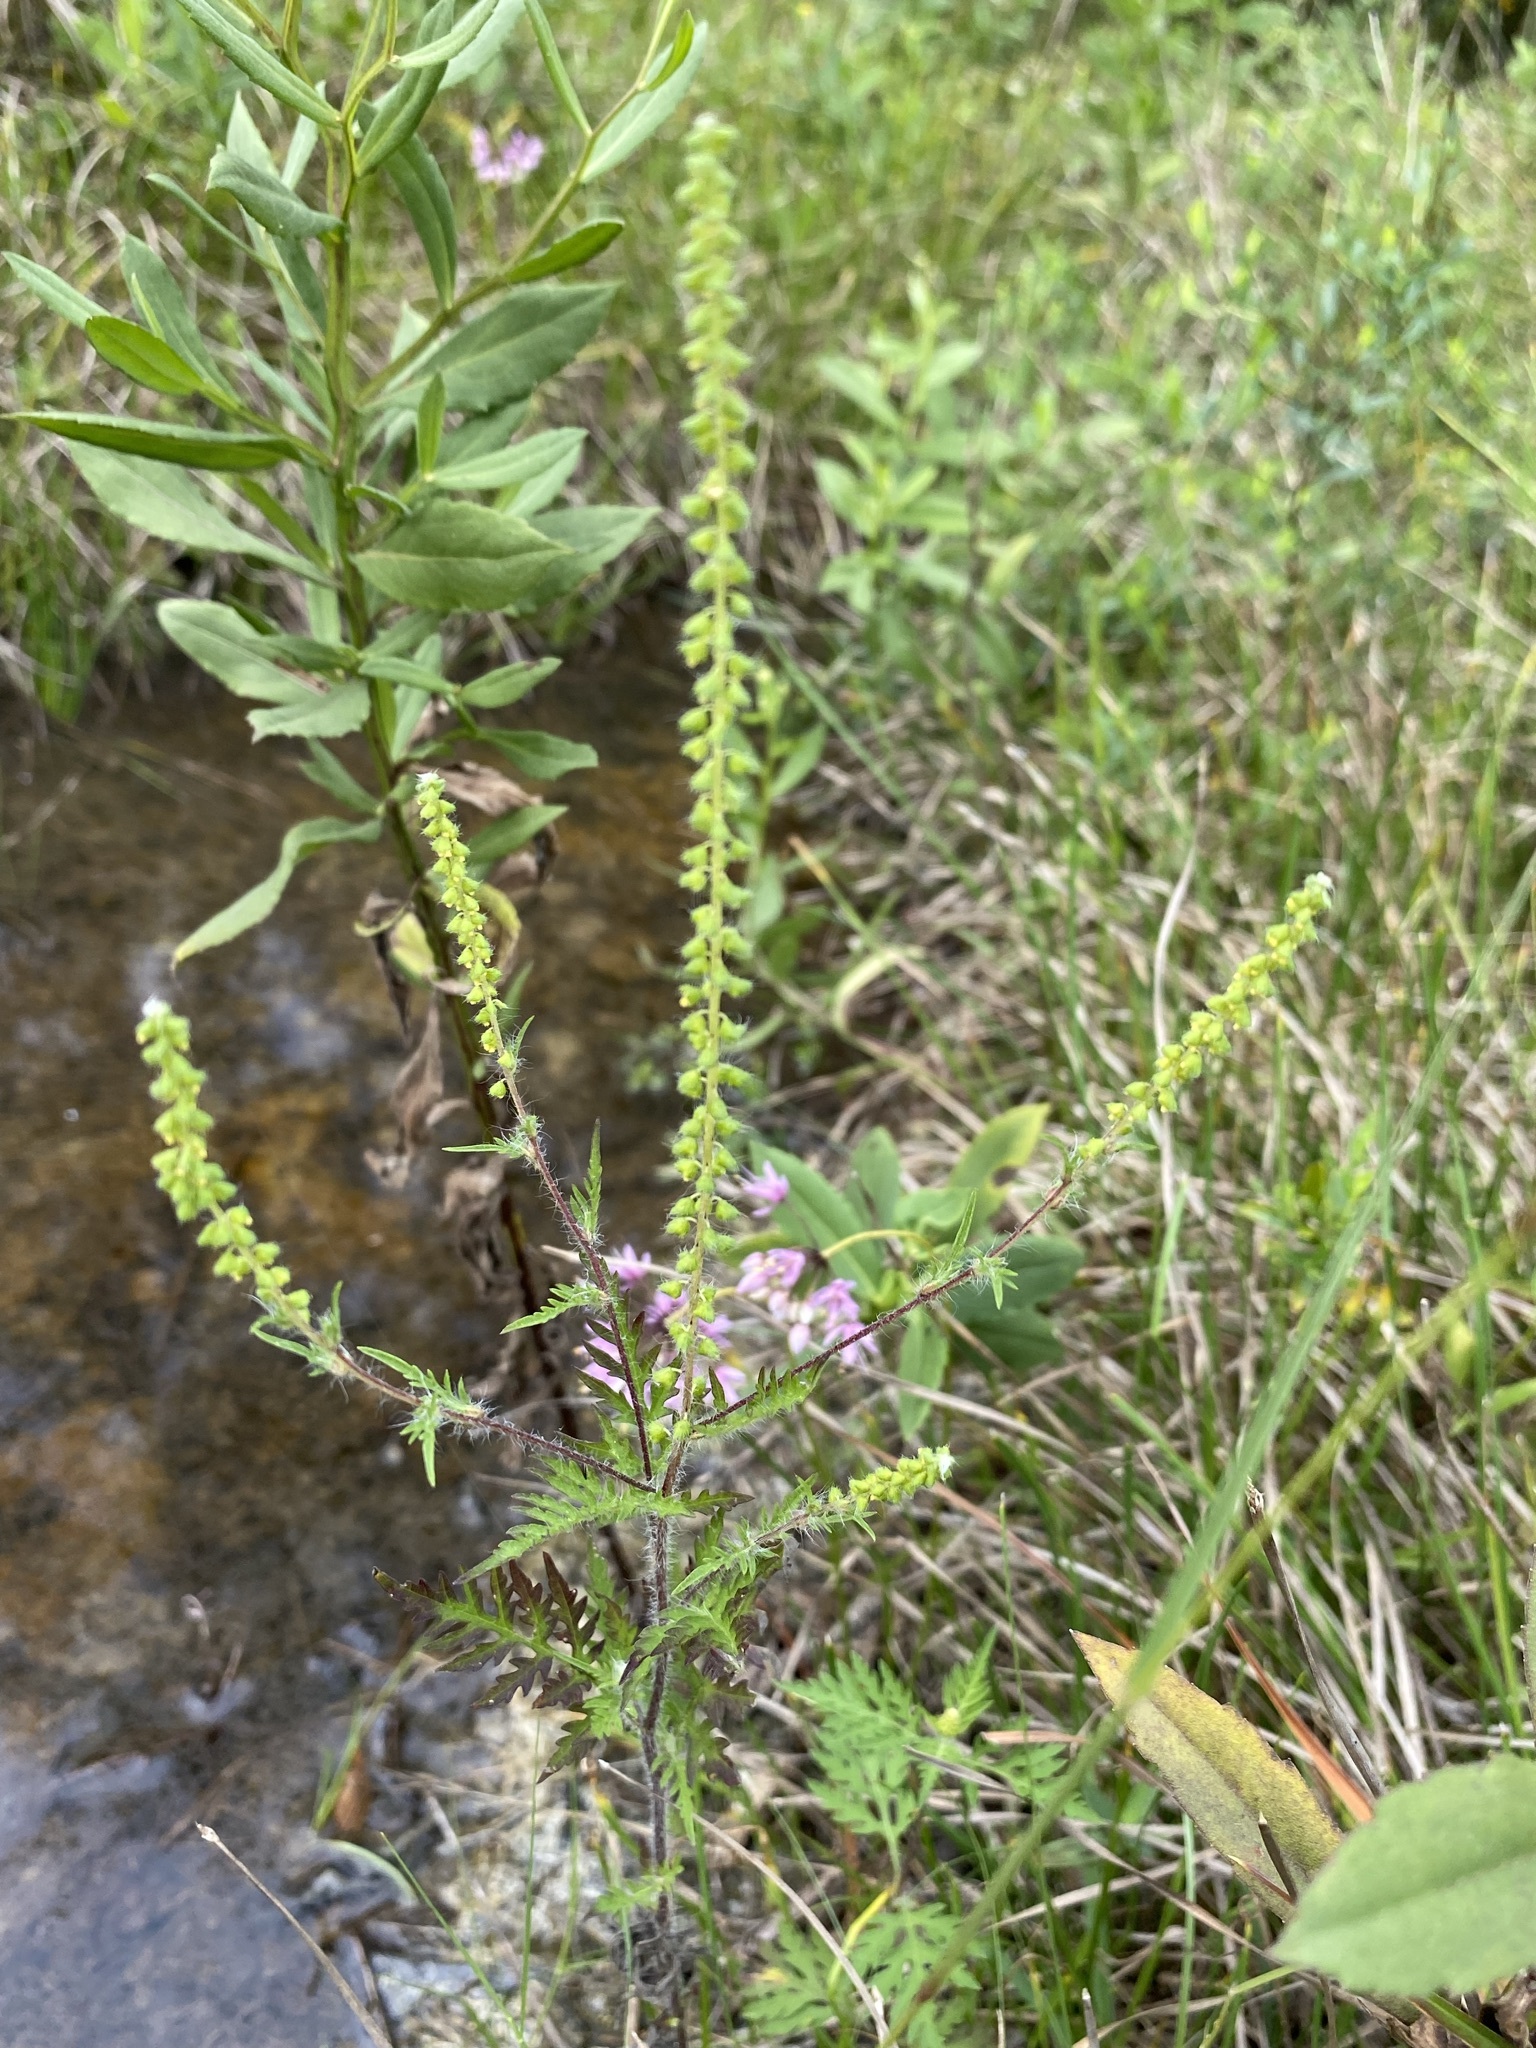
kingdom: Plantae
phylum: Tracheophyta
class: Magnoliopsida
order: Asterales
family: Asteraceae
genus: Ambrosia
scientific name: Ambrosia artemisiifolia
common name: Annual ragweed
